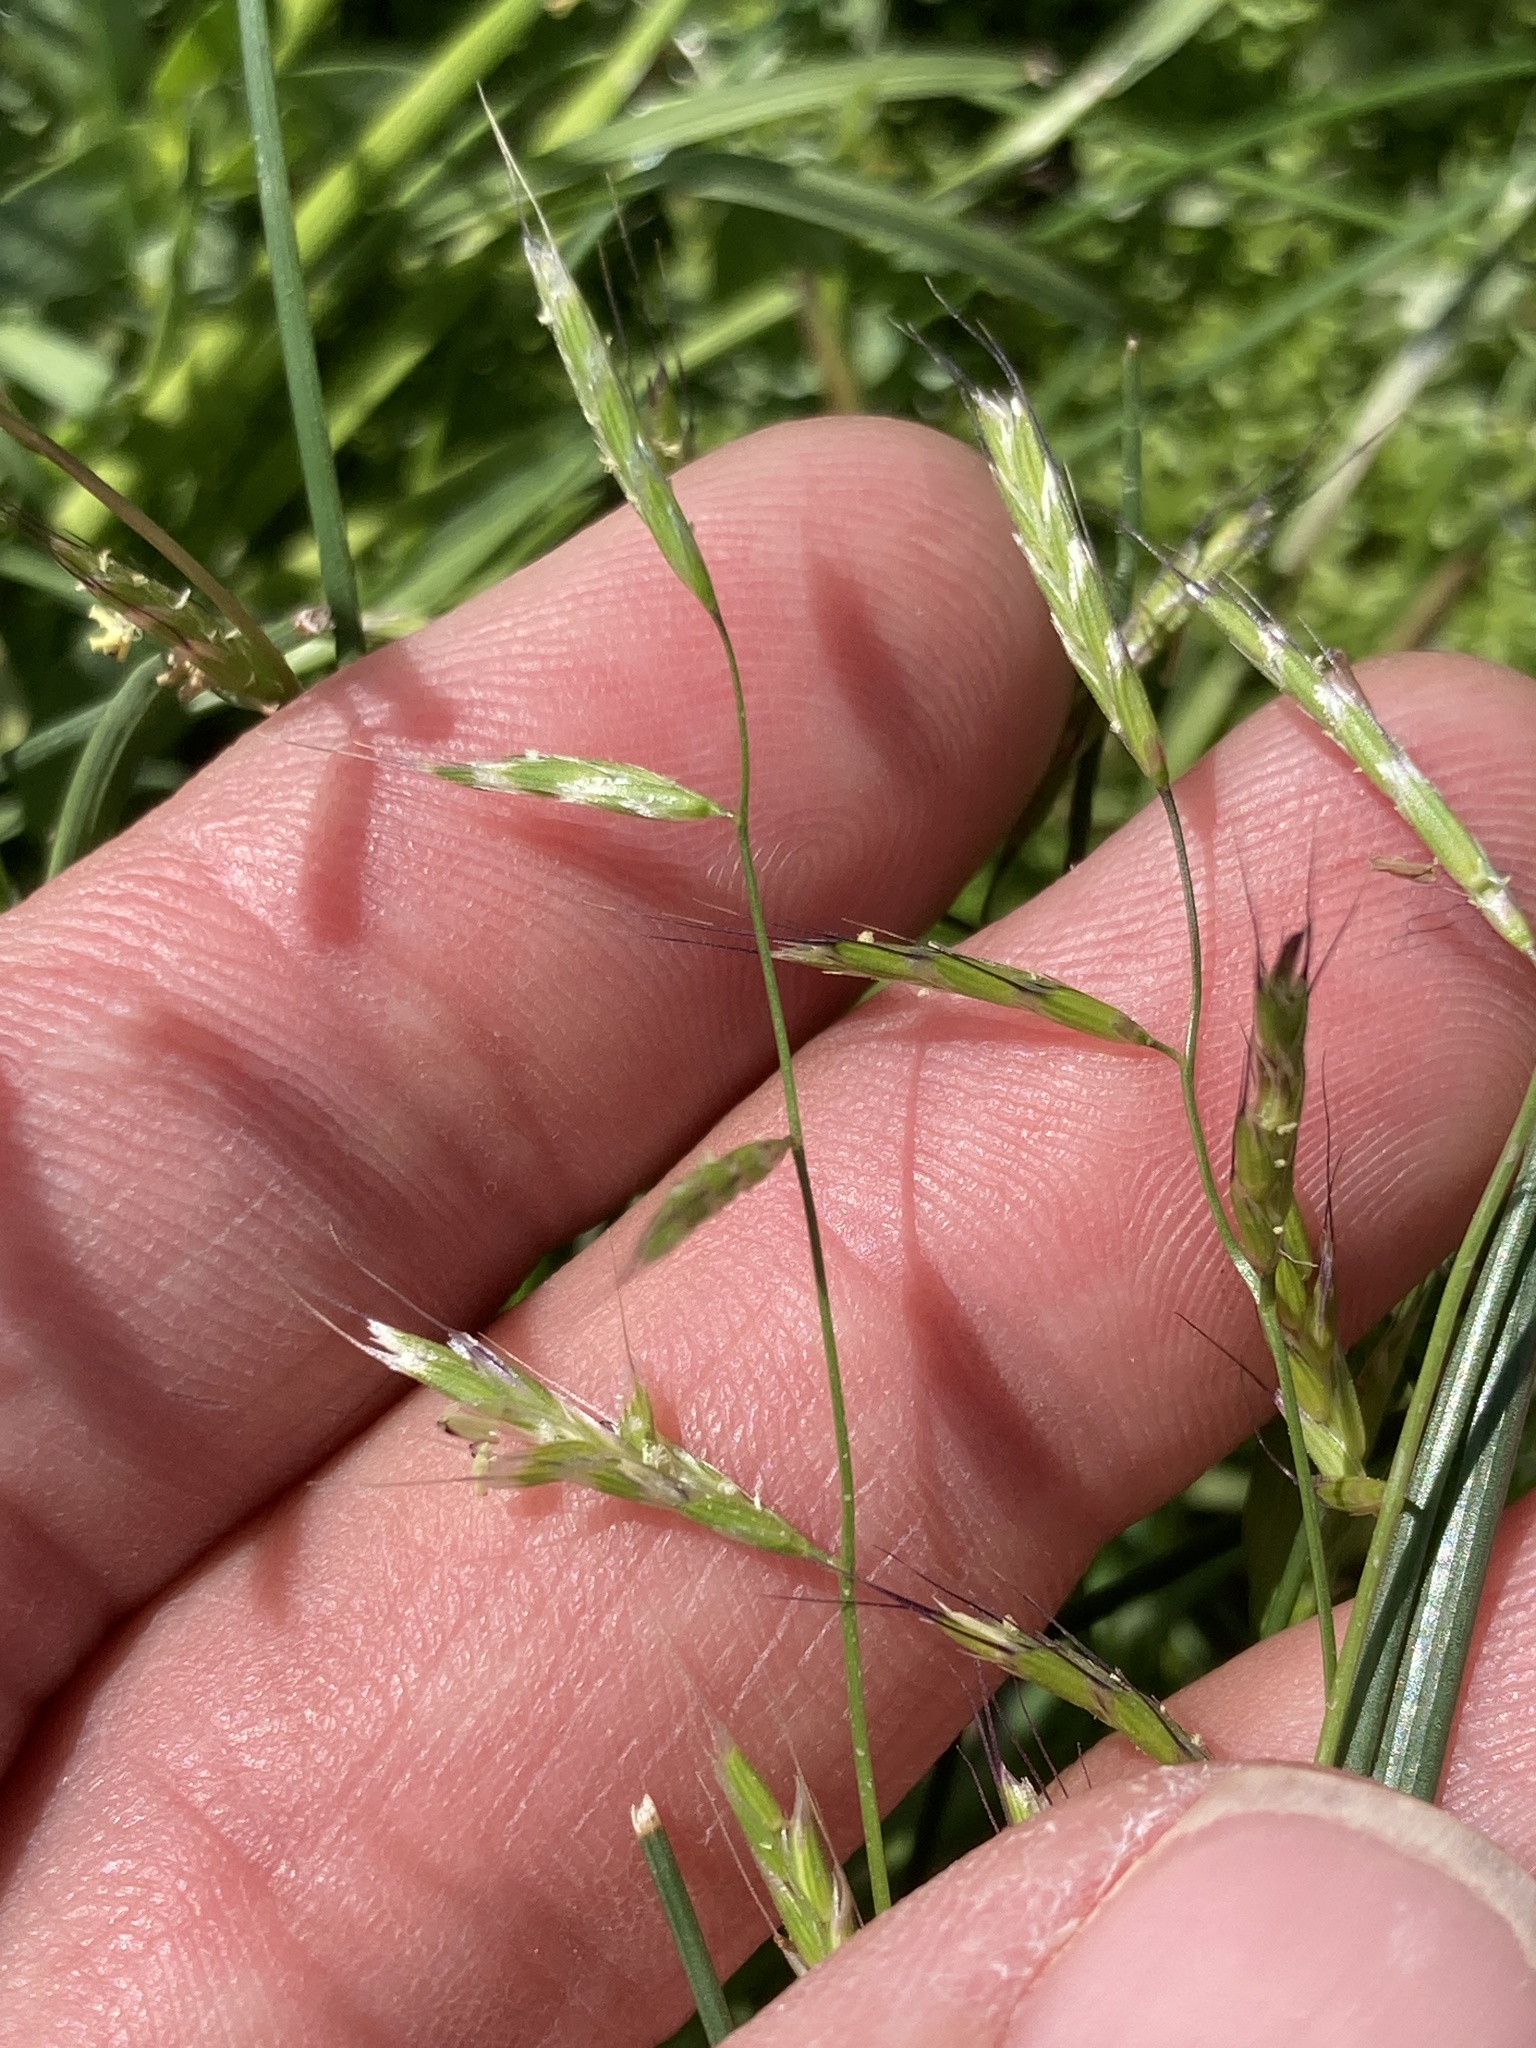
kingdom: Plantae
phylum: Tracheophyta
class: Liliopsida
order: Poales
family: Poaceae
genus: Pleuropogon
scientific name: Pleuropogon californicus
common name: California semaphore grass
